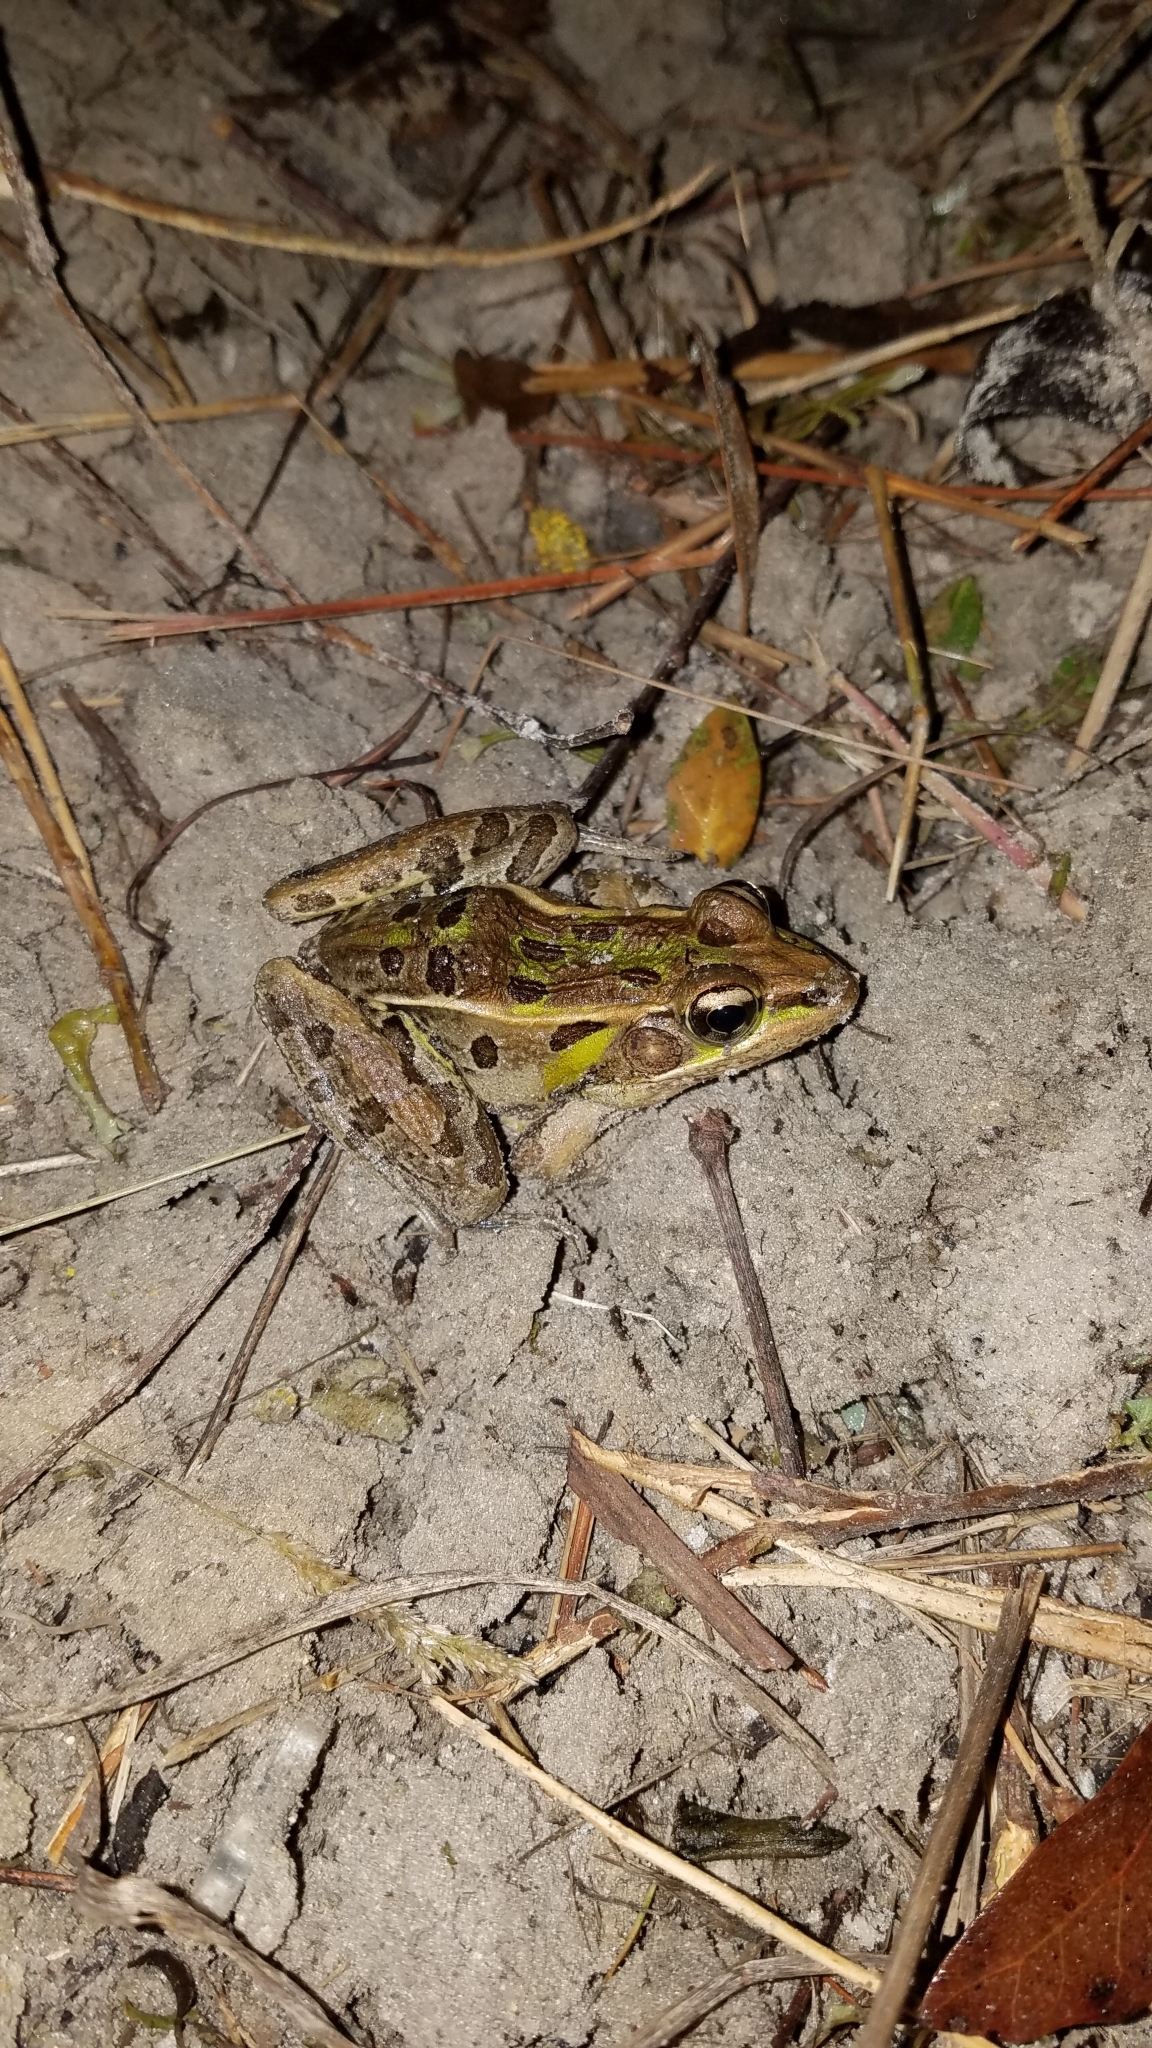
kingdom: Animalia
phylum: Chordata
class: Amphibia
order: Anura
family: Ranidae
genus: Lithobates
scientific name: Lithobates sphenocephalus
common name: Southern leopard frog
